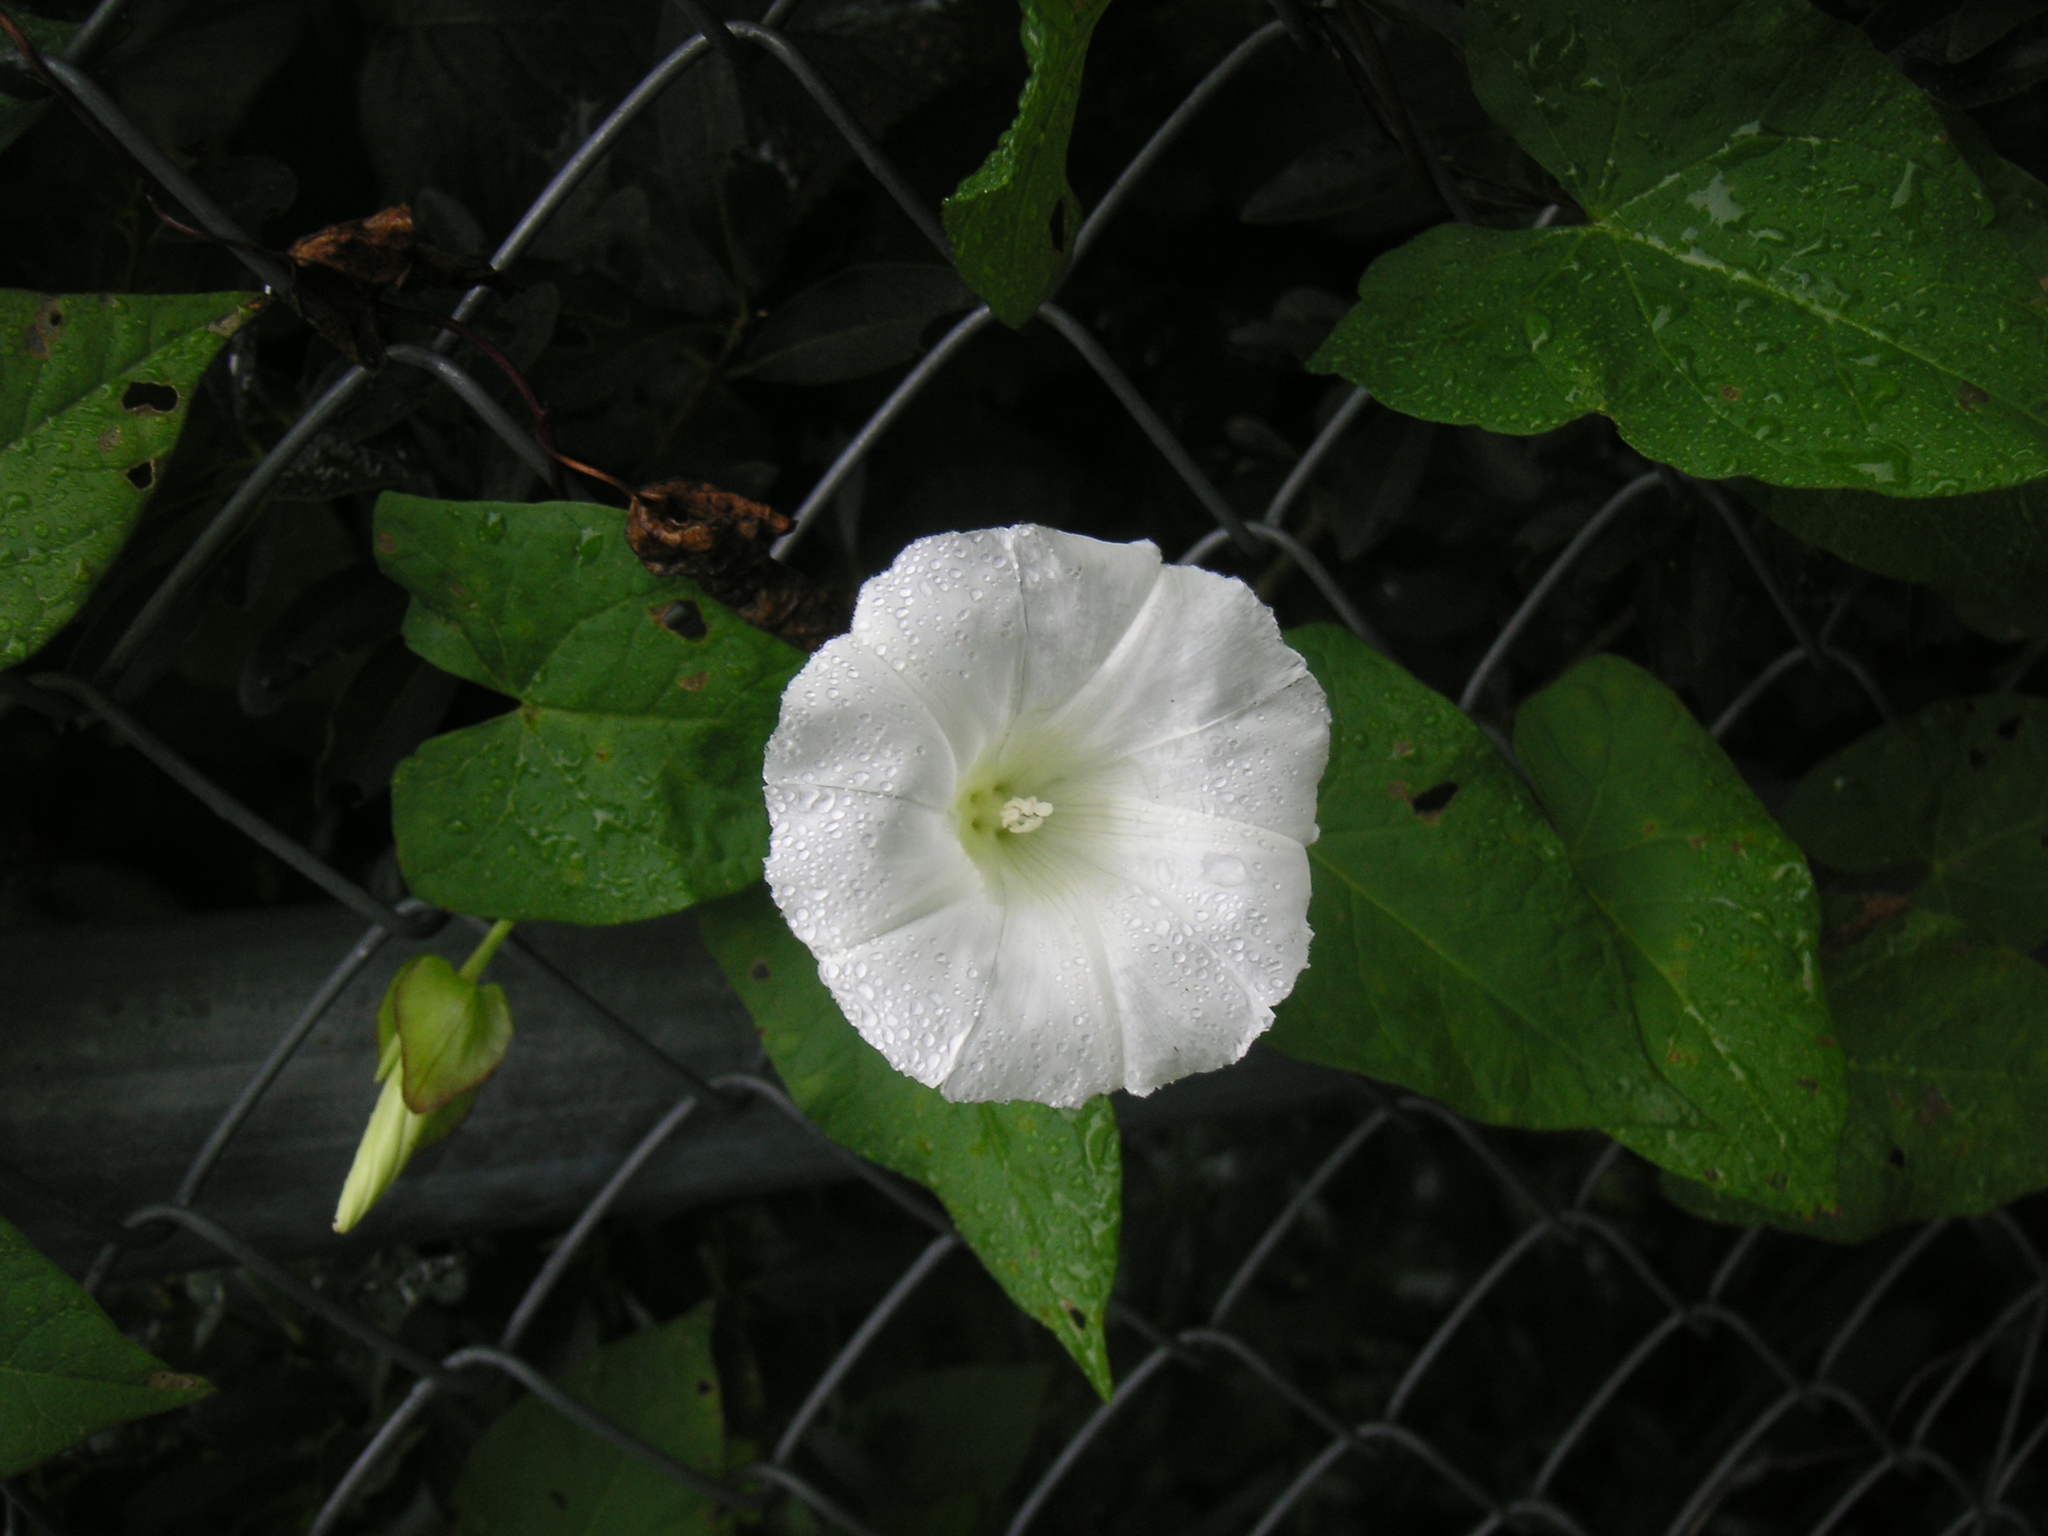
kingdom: Plantae
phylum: Tracheophyta
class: Magnoliopsida
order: Solanales
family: Convolvulaceae
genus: Calystegia
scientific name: Calystegia sepium
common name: Hedge bindweed
